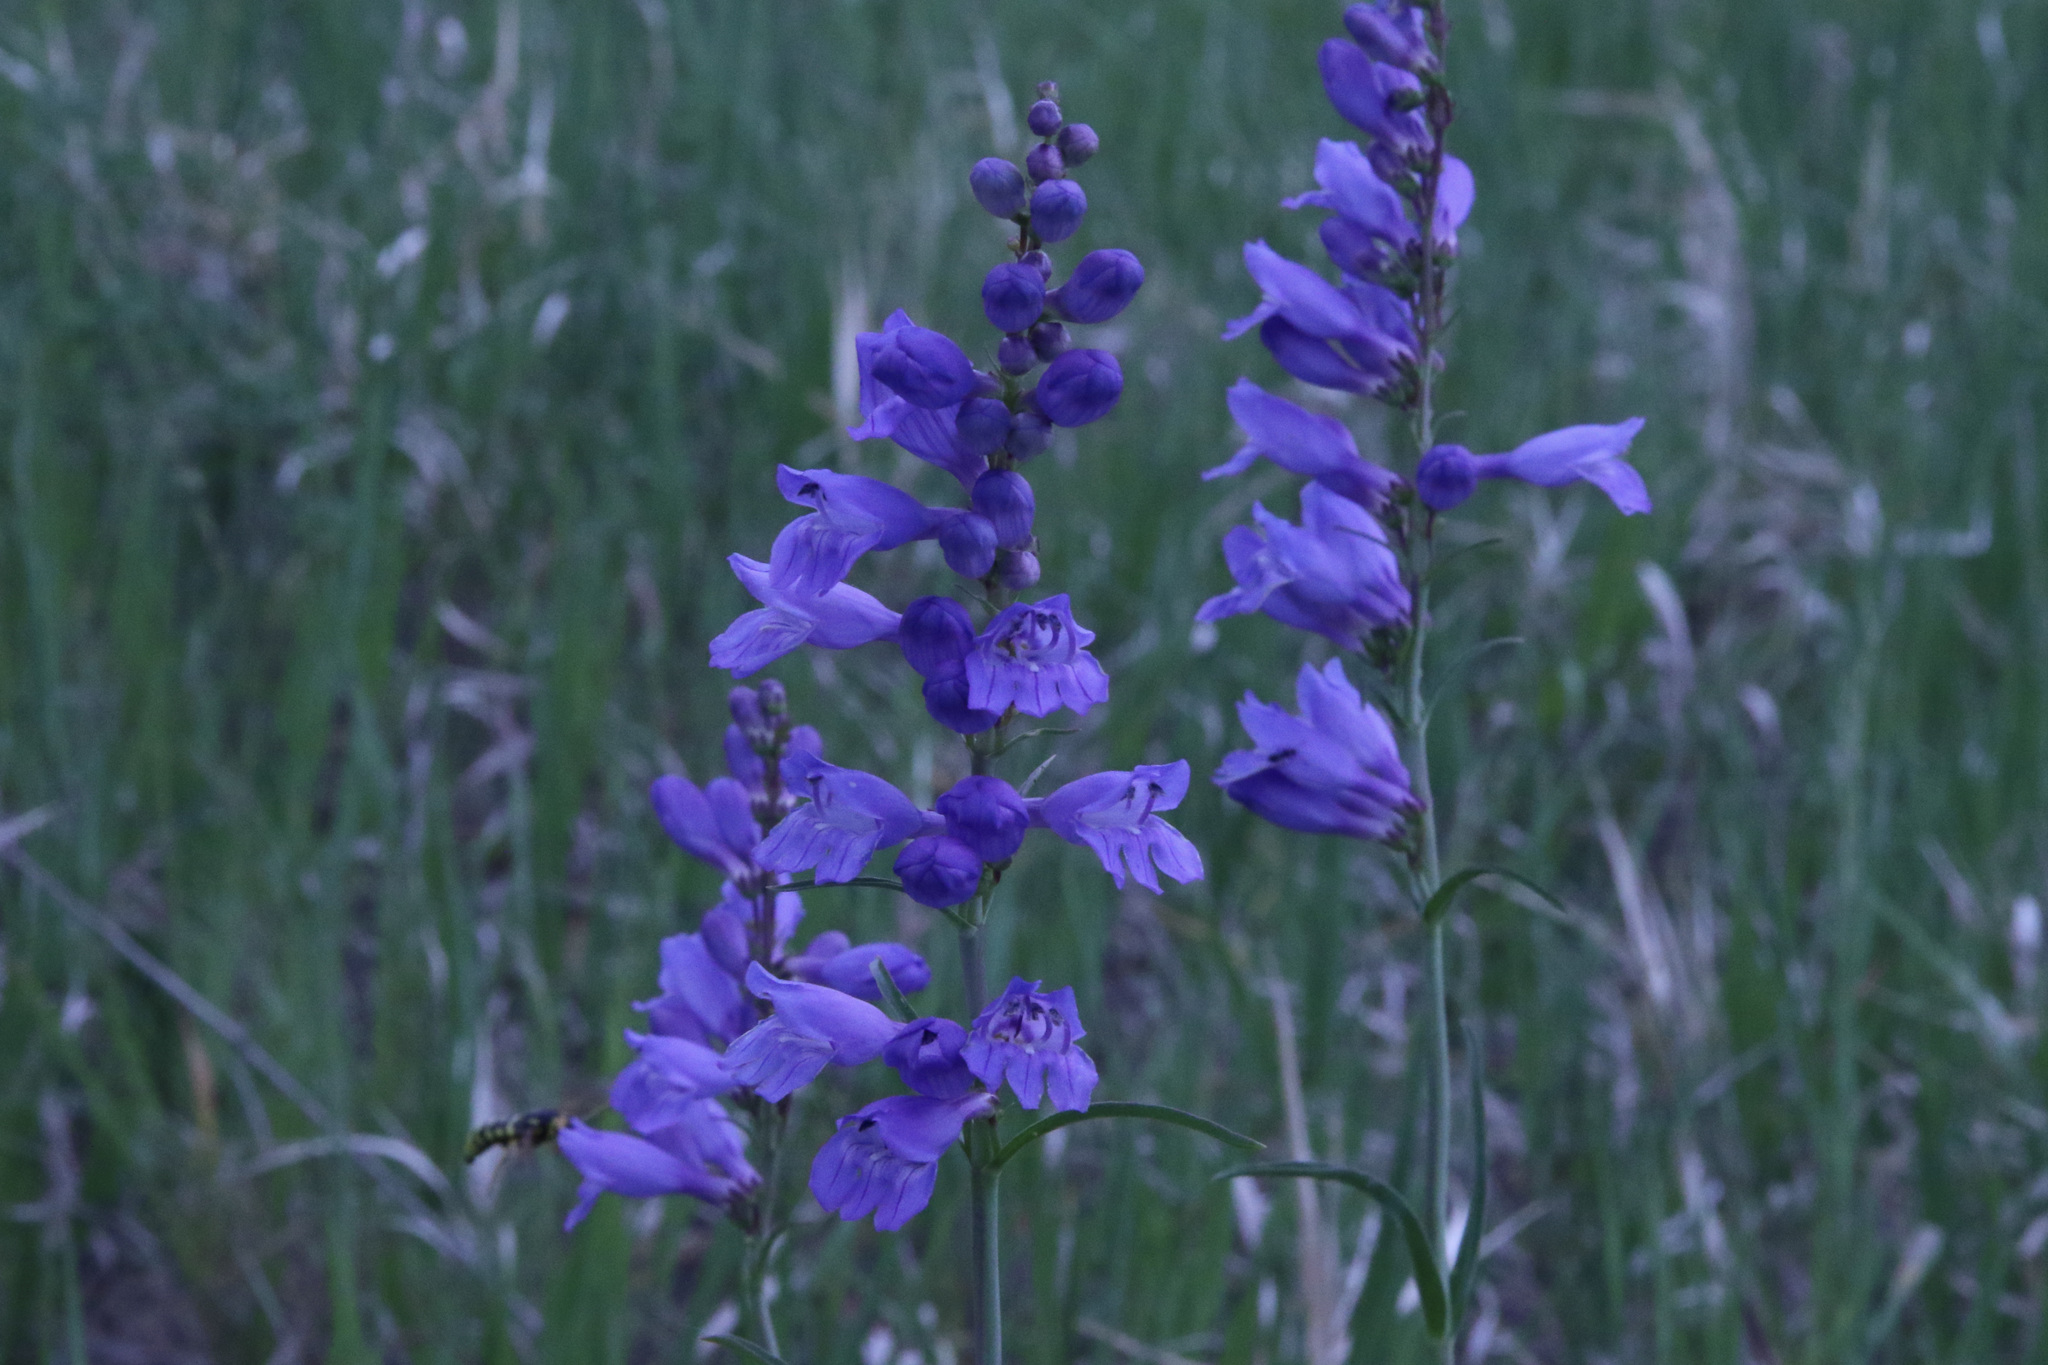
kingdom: Plantae
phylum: Tracheophyta
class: Magnoliopsida
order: Lamiales
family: Plantaginaceae
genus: Penstemon
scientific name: Penstemon strictus
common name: Rocky mountain penstemon
